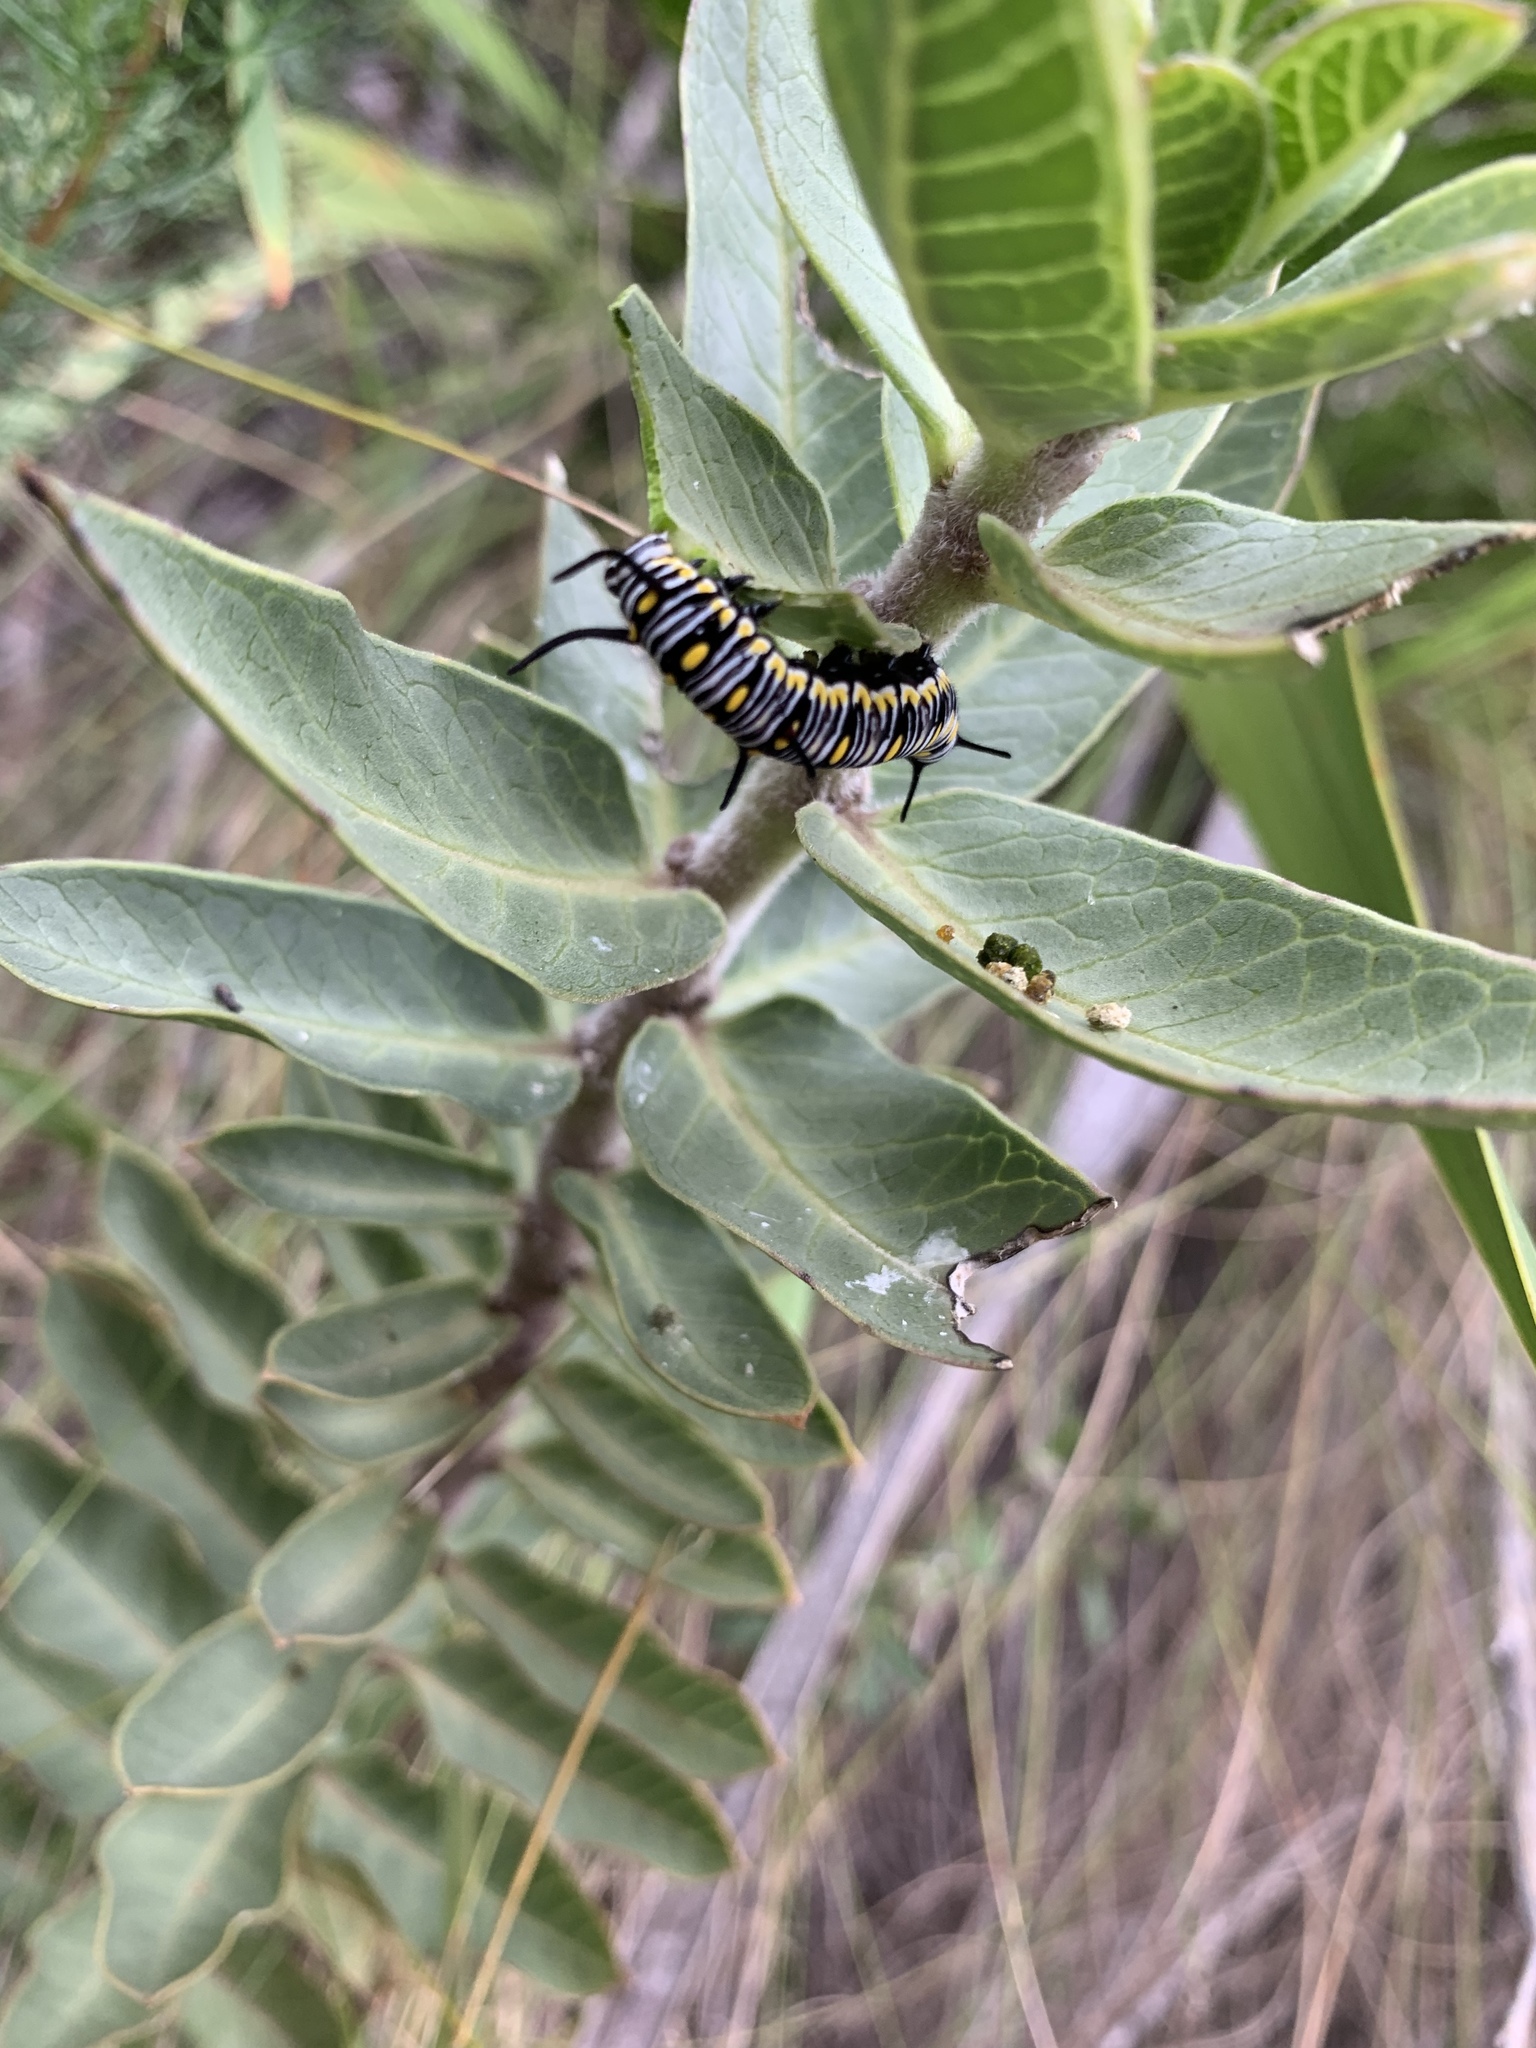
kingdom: Animalia
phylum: Arthropoda
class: Insecta
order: Lepidoptera
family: Nymphalidae
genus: Danaus
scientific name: Danaus chrysippus
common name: Plain tiger
